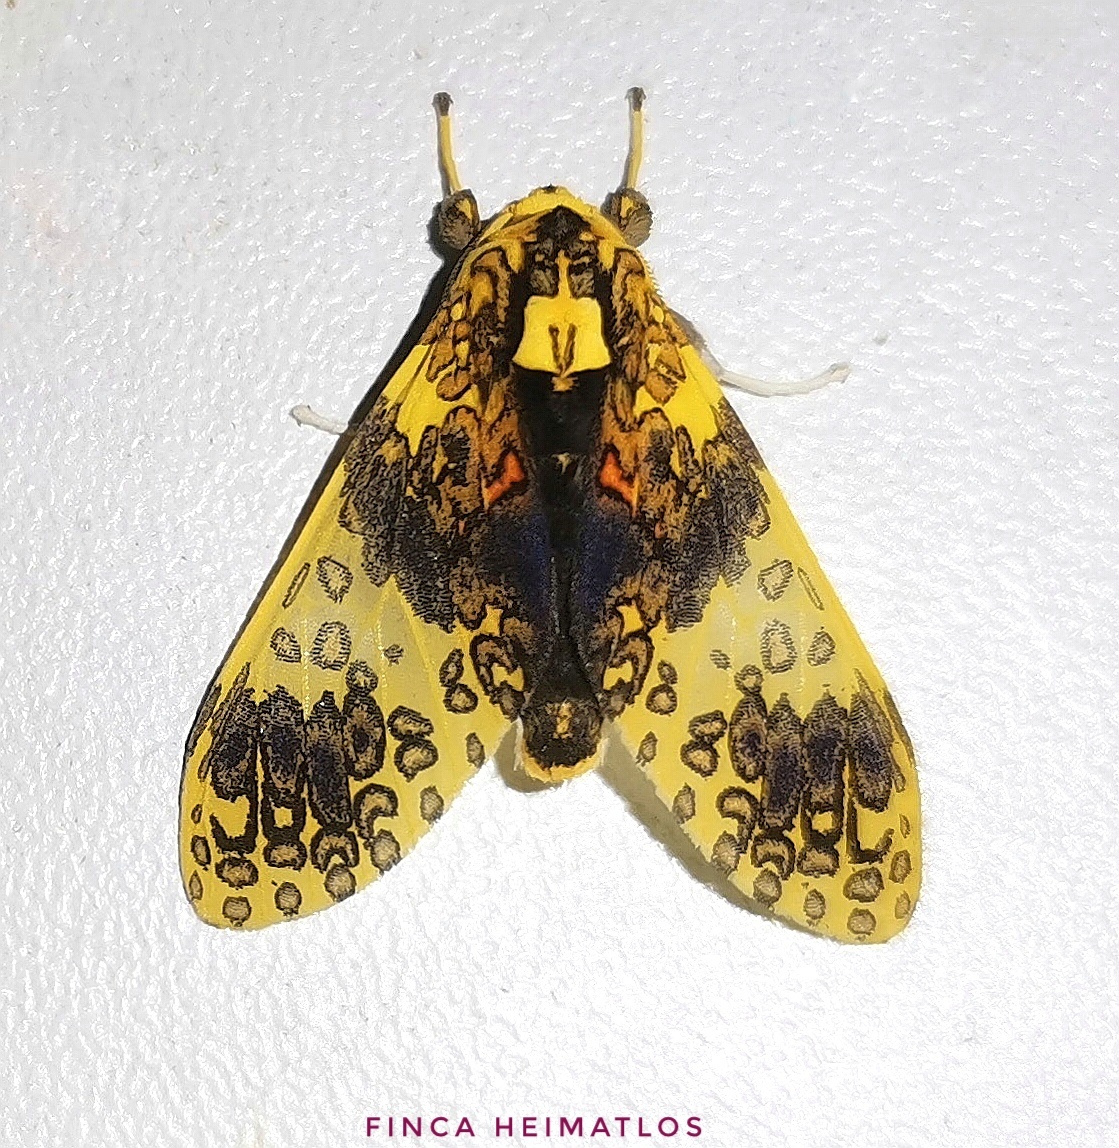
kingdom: Animalia
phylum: Arthropoda
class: Insecta
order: Lepidoptera
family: Erebidae
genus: Amaxia
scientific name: Amaxia violacea
